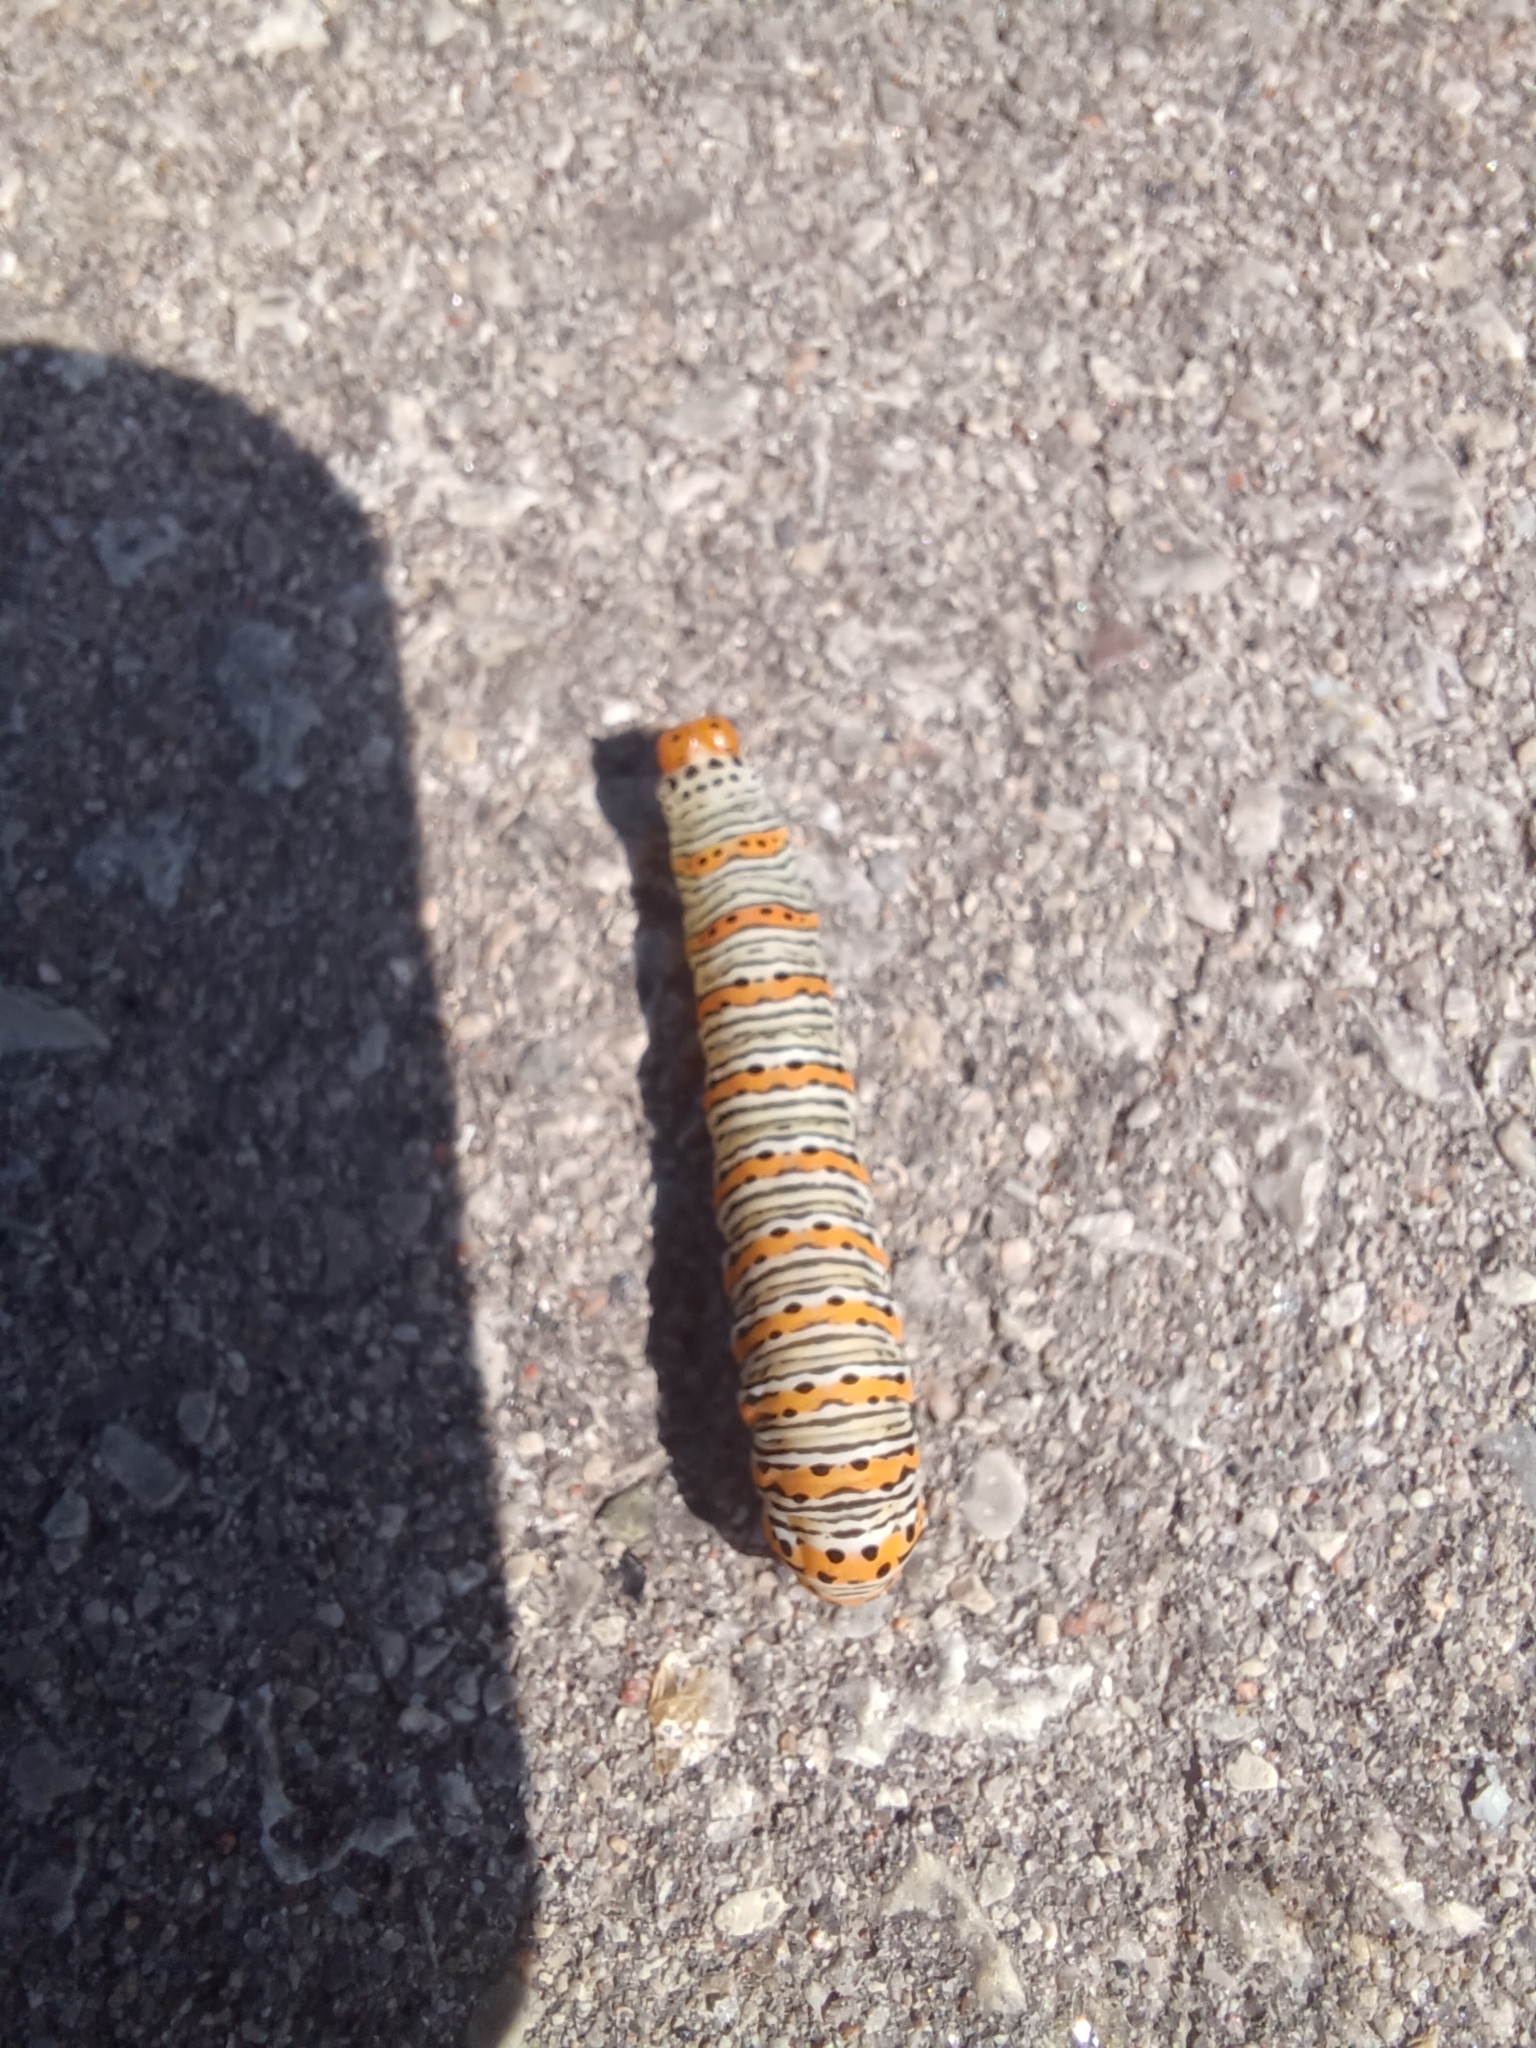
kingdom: Animalia
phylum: Arthropoda
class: Insecta
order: Lepidoptera
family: Noctuidae
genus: Eudryas
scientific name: Eudryas unio
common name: Pearly wood-nymph
